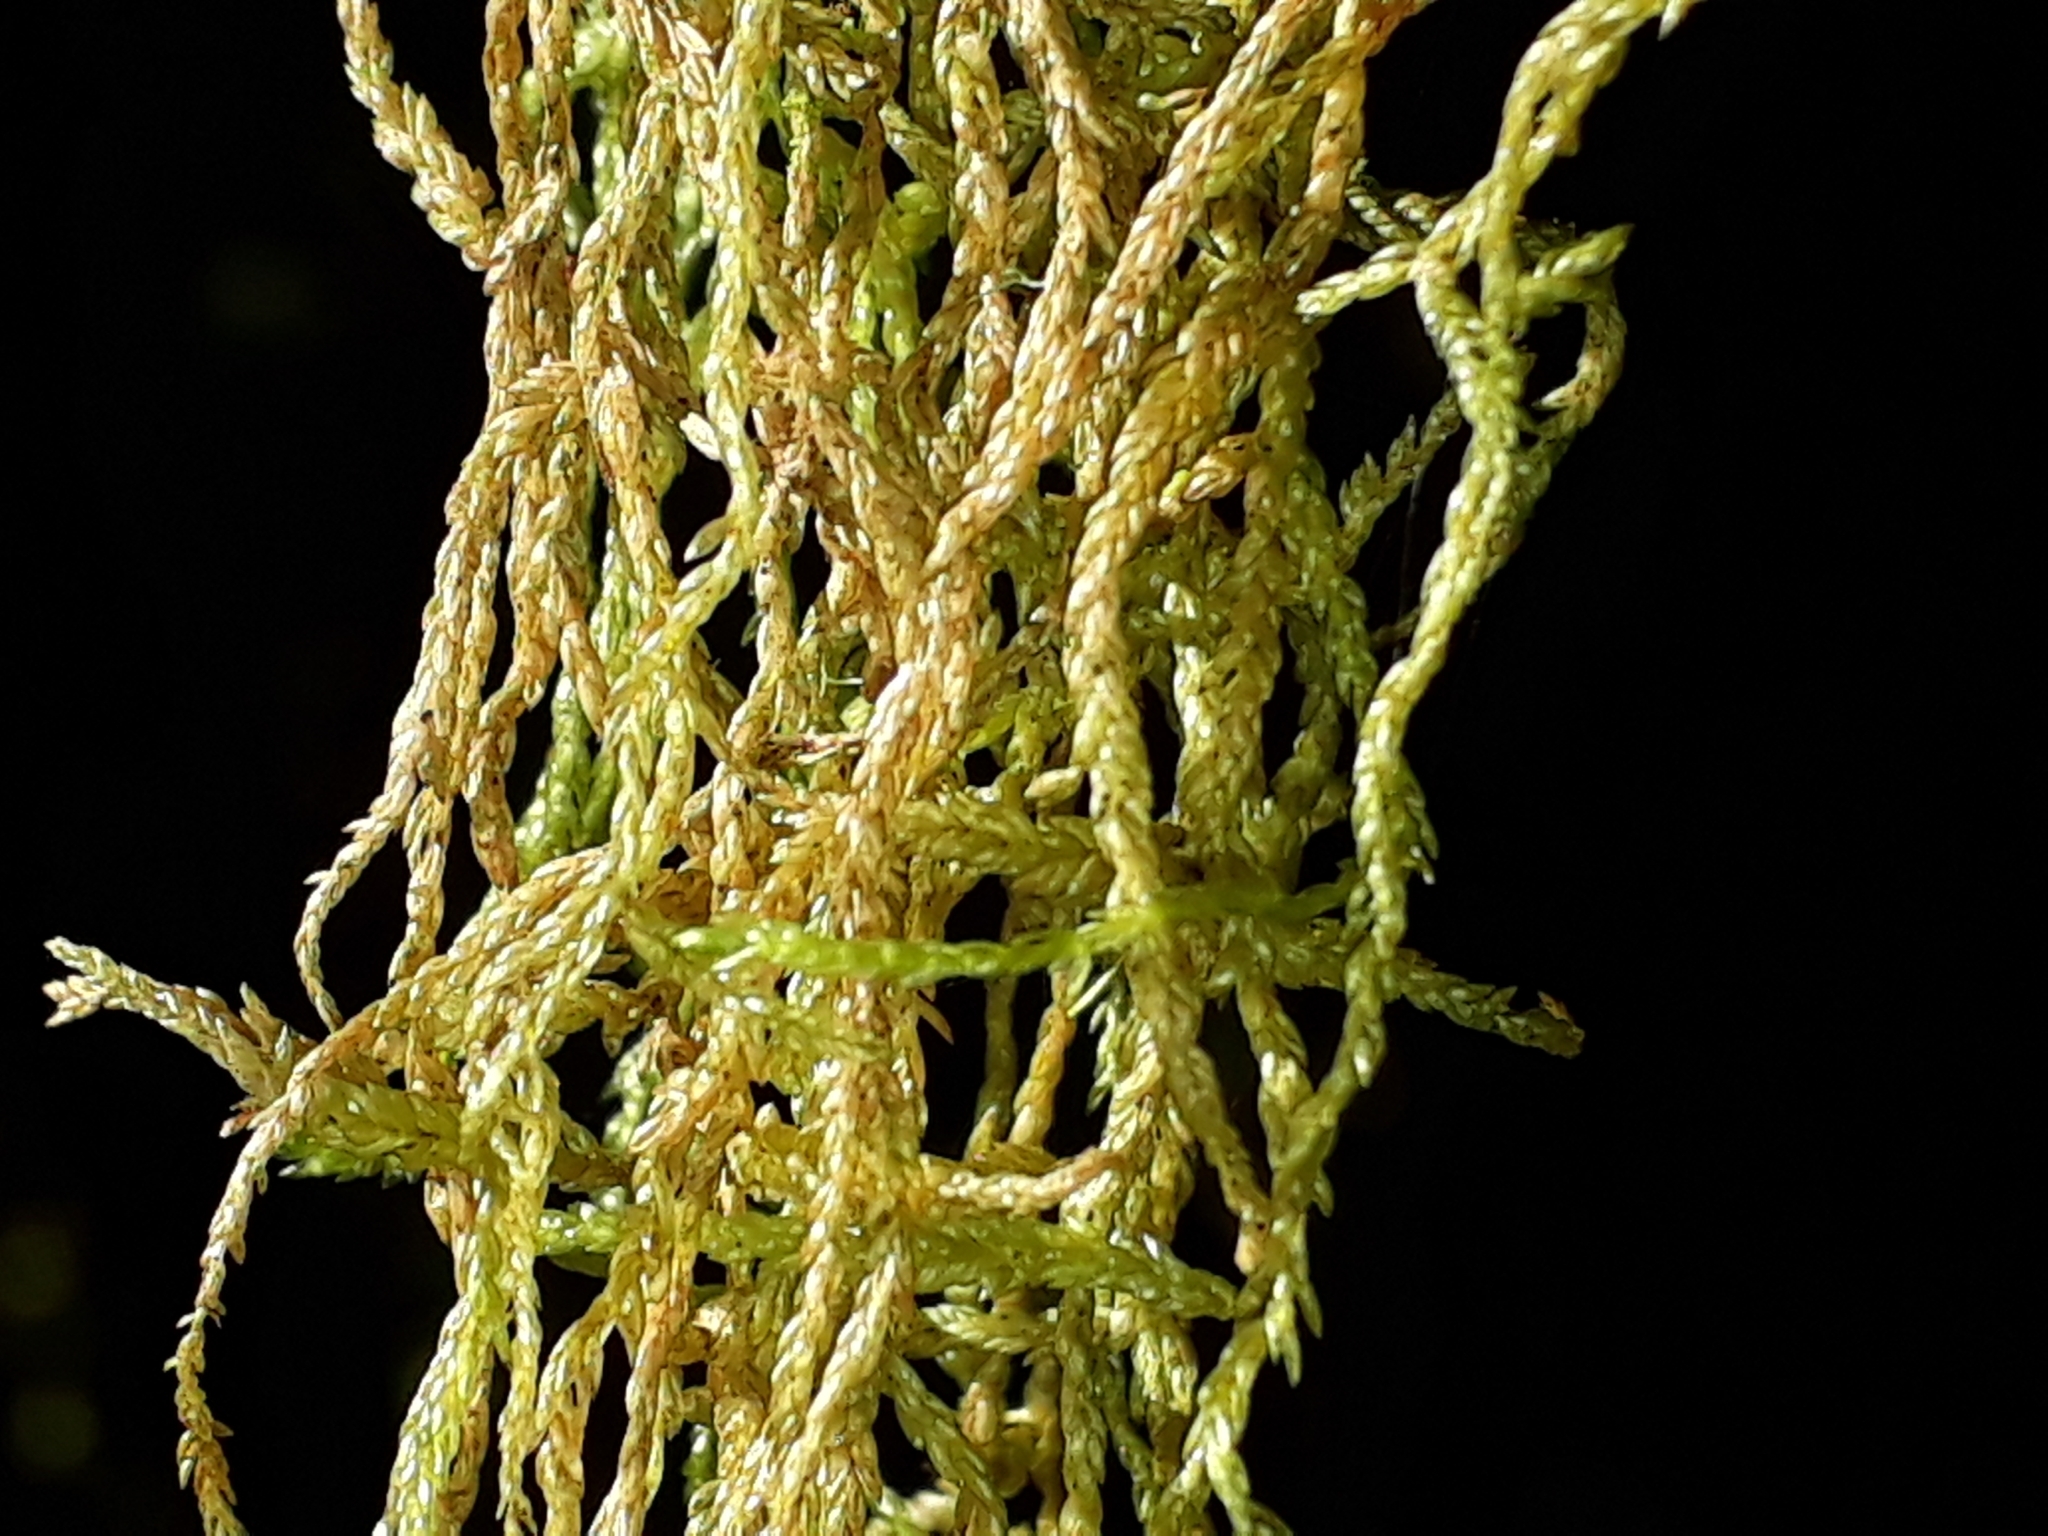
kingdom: Plantae
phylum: Bryophyta
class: Bryopsida
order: Hypnales
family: Lembophyllaceae
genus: Weymouthia
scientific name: Weymouthia mollis
